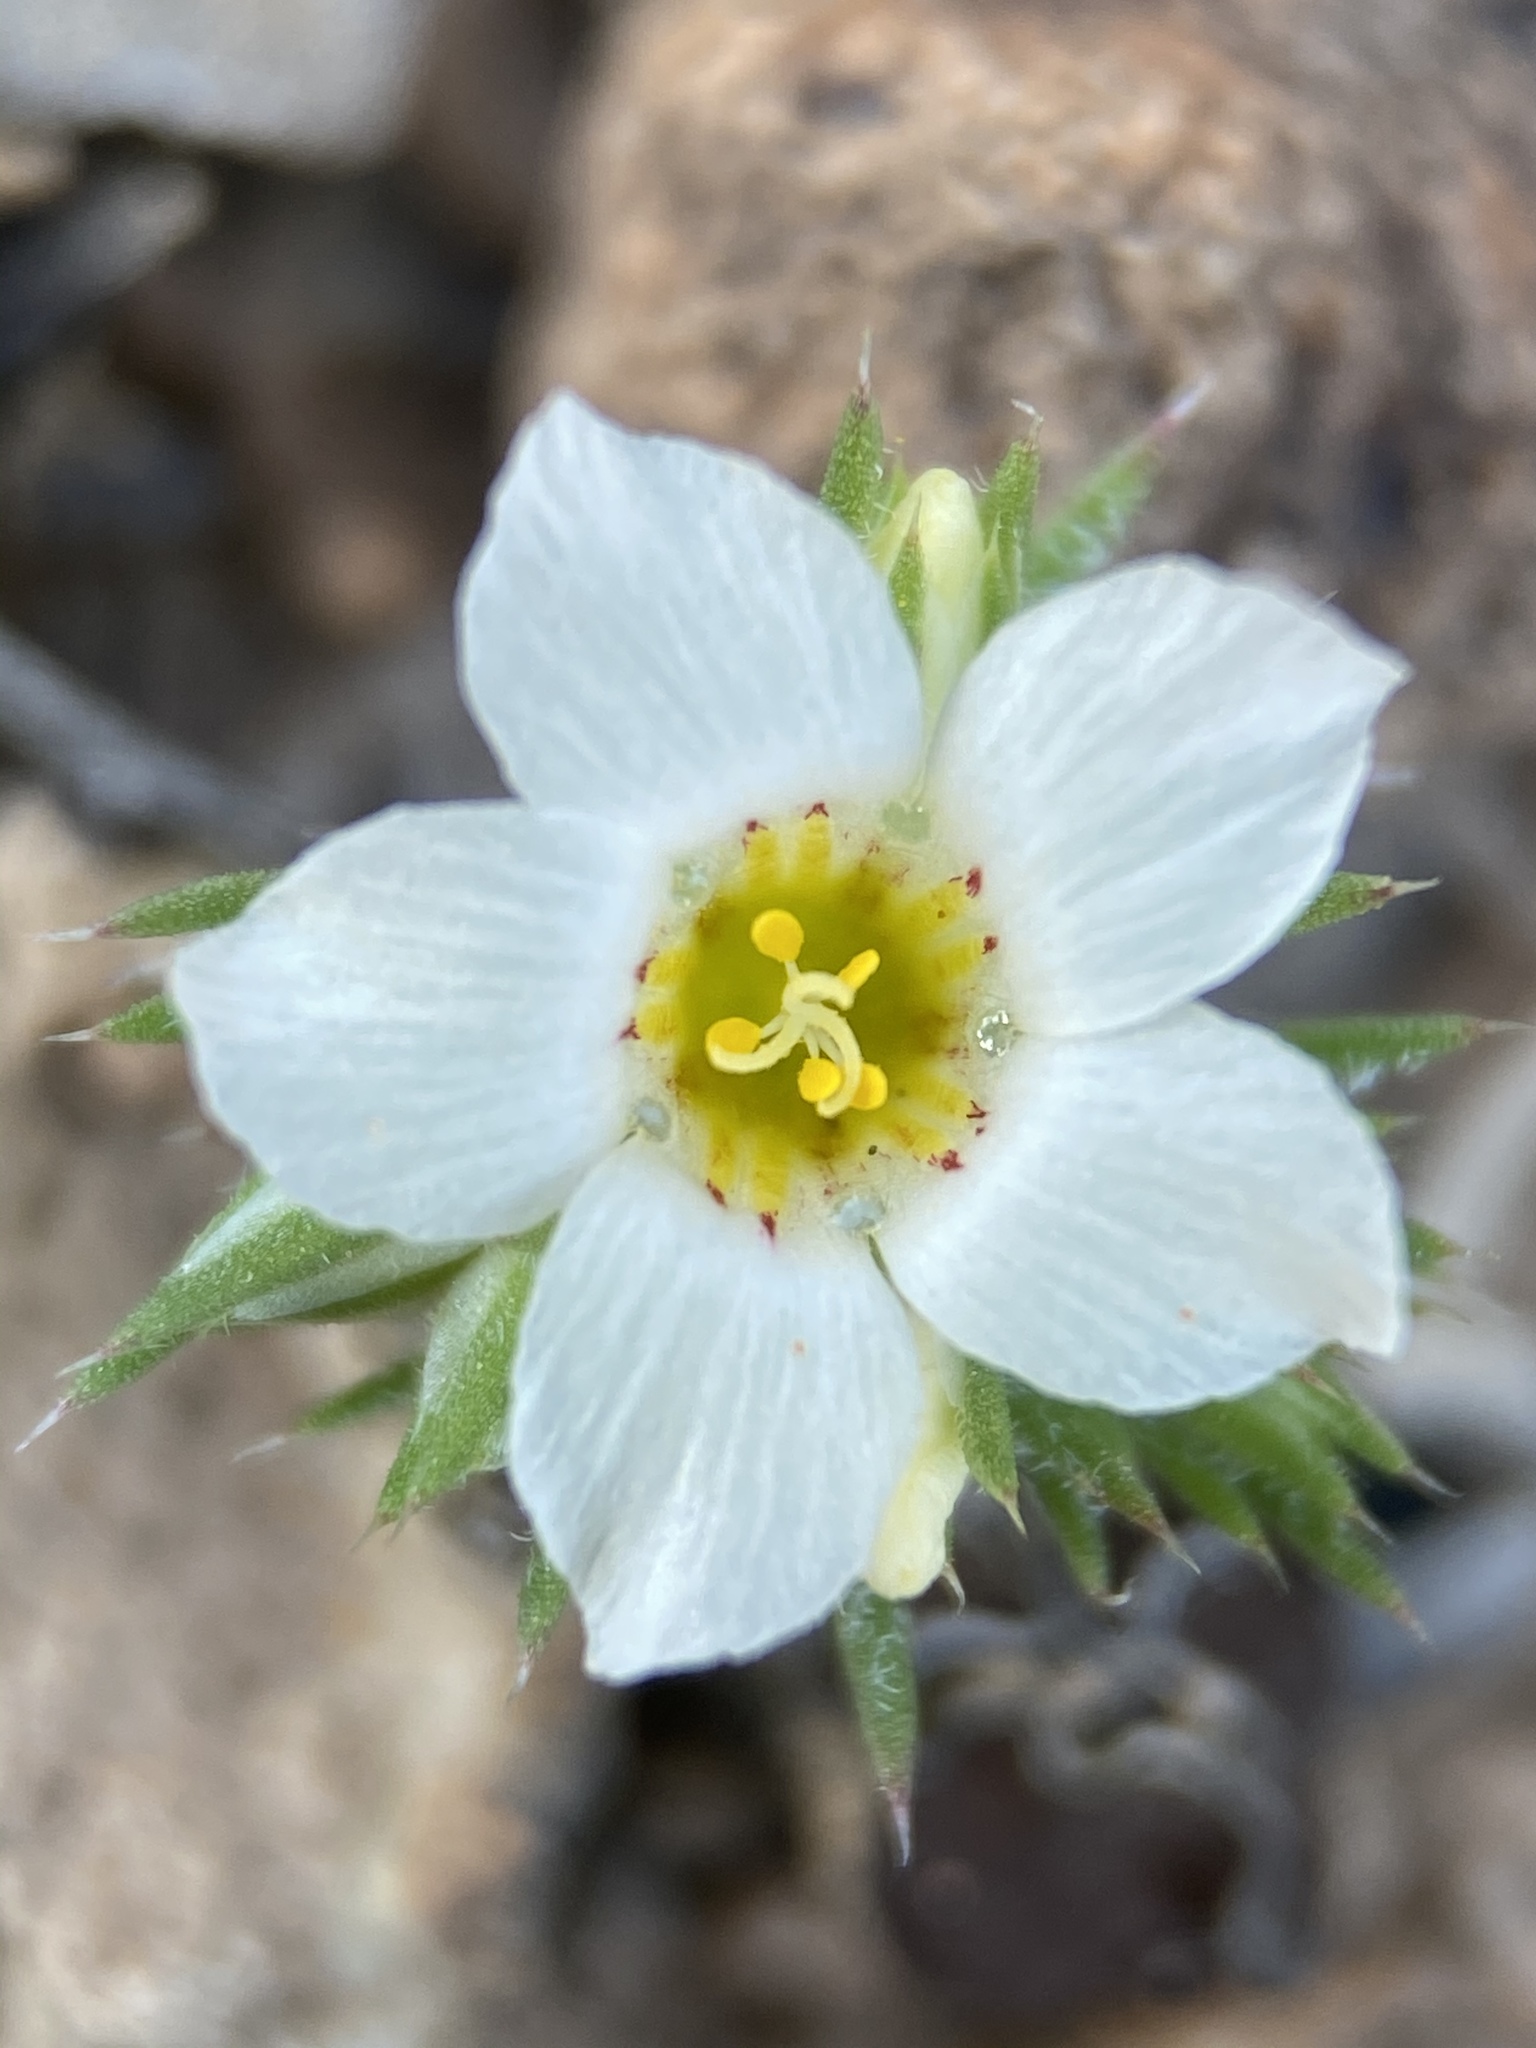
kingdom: Plantae
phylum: Tracheophyta
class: Magnoliopsida
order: Ericales
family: Polemoniaceae
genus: Linanthus
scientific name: Linanthus demissus
